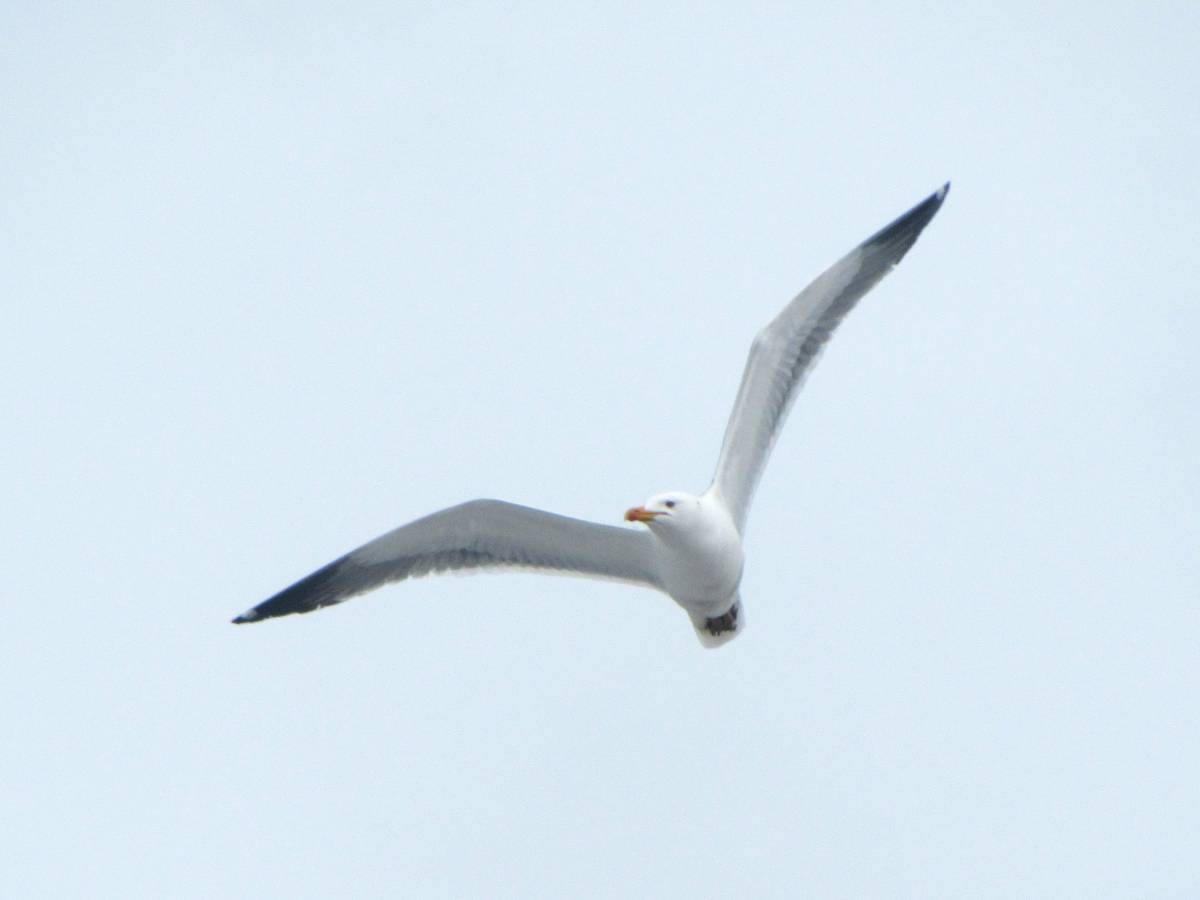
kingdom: Animalia
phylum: Chordata
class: Aves
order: Charadriiformes
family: Laridae
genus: Larus
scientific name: Larus fuscus
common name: Lesser black-backed gull
